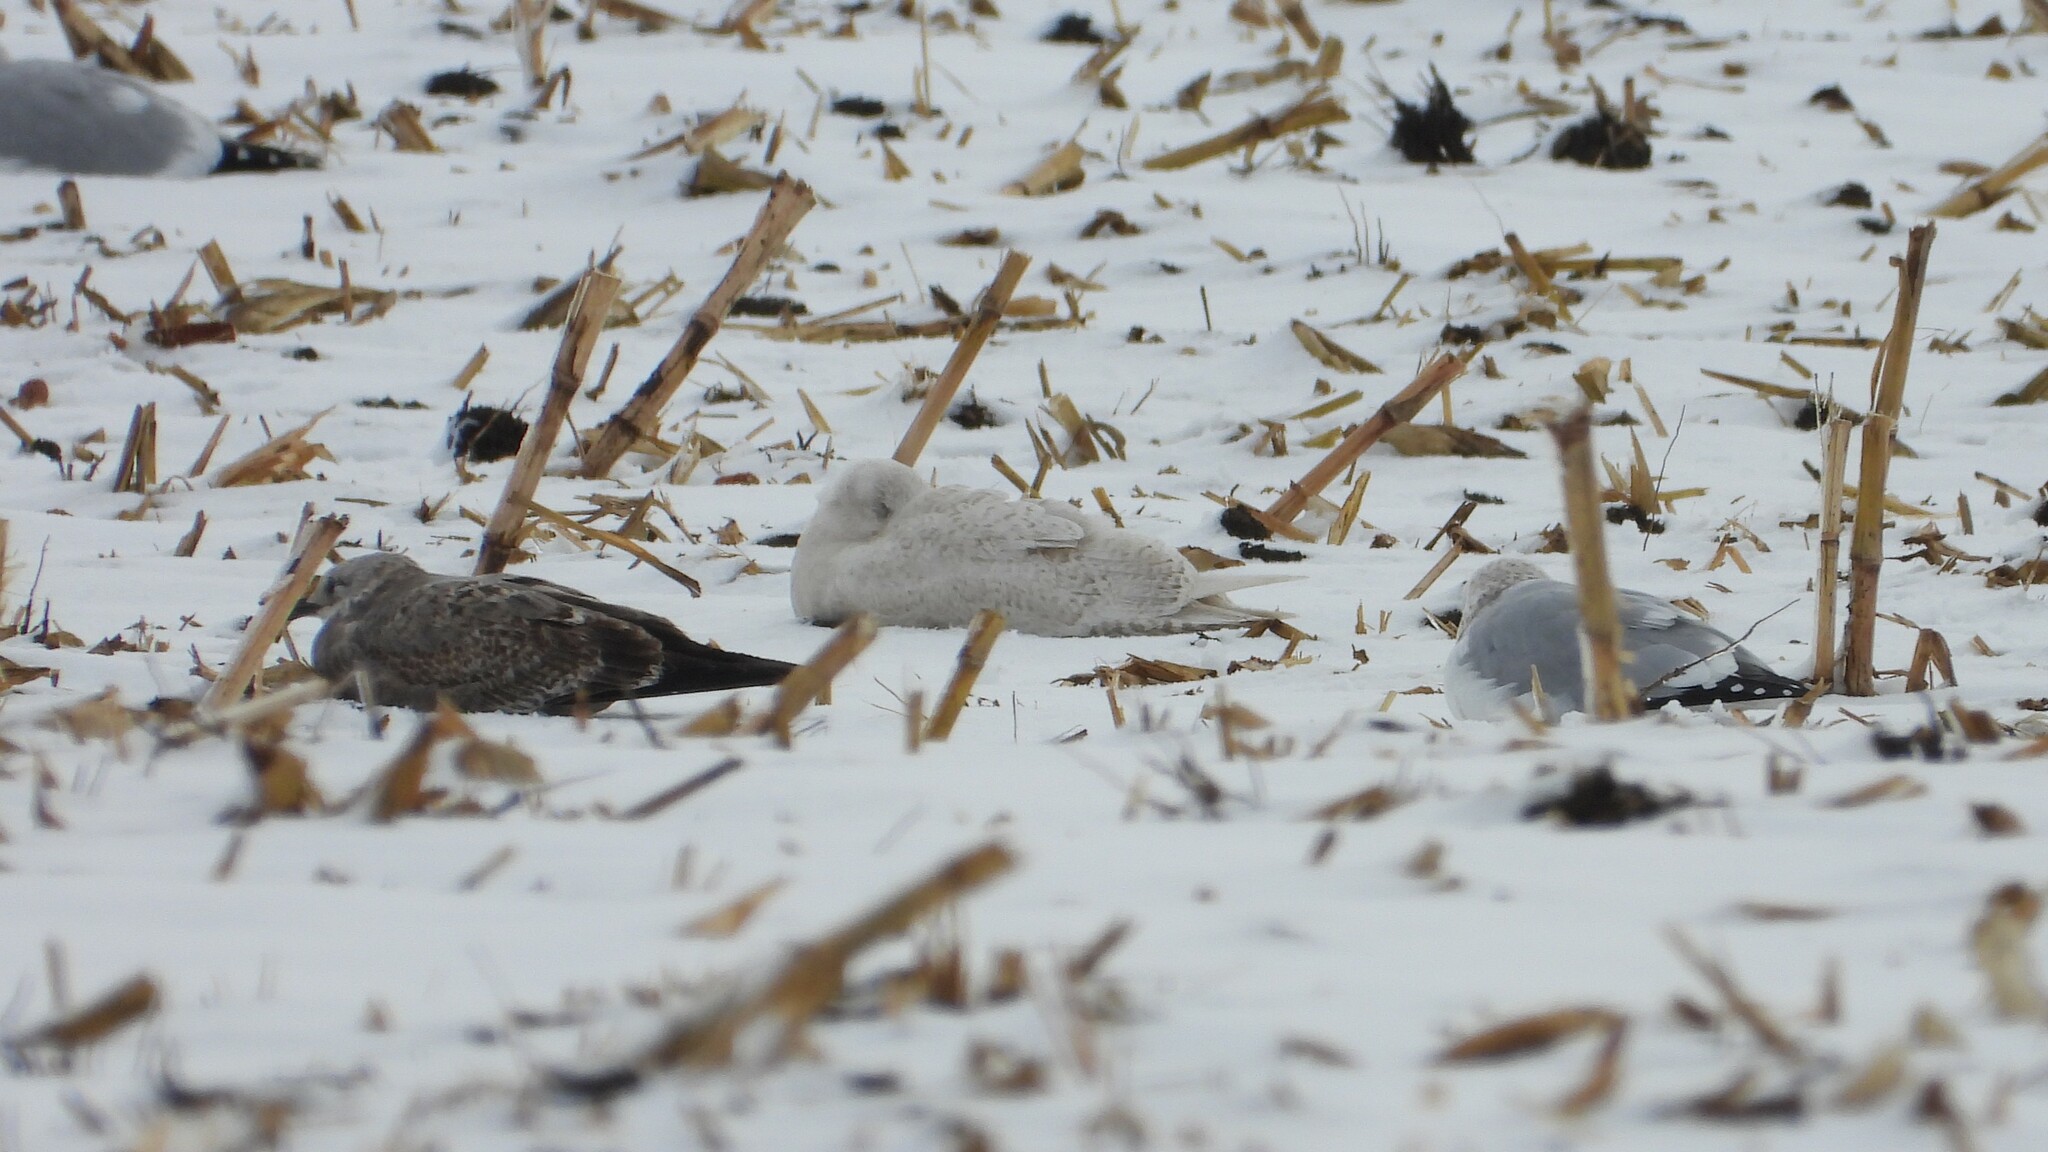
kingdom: Animalia
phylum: Chordata
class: Aves
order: Charadriiformes
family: Laridae
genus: Larus
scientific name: Larus hyperboreus
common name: Glaucous gull
